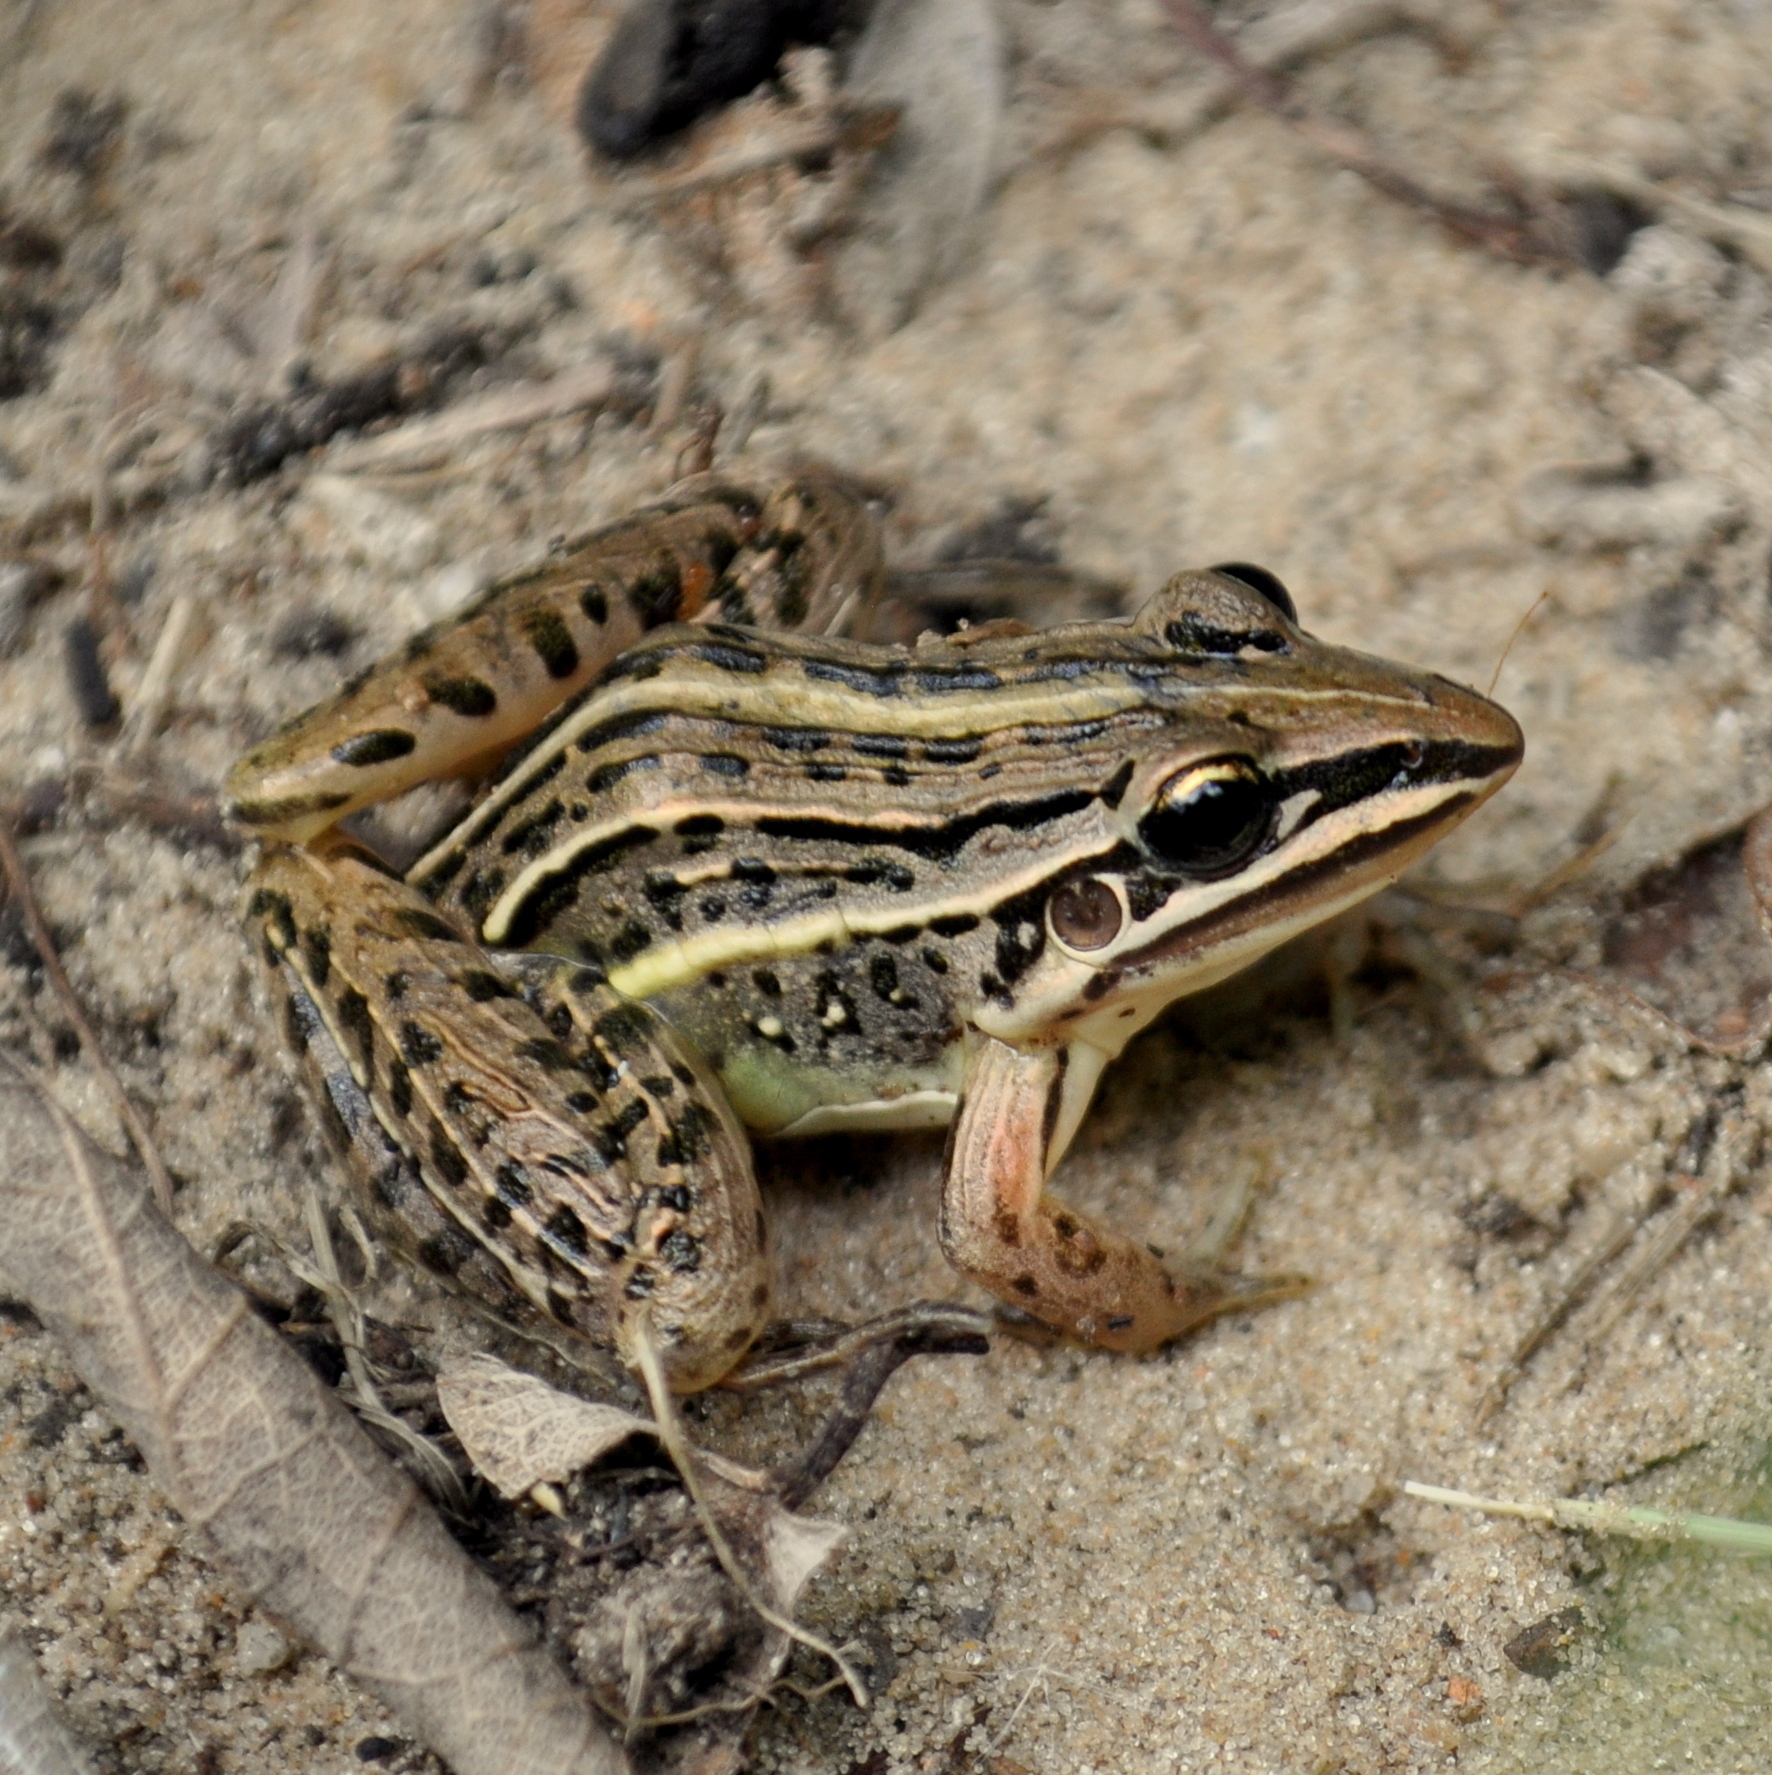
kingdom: Animalia
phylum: Chordata
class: Amphibia
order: Anura
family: Leptodactylidae
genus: Leptodactylus
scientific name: Leptodactylus gracilis
